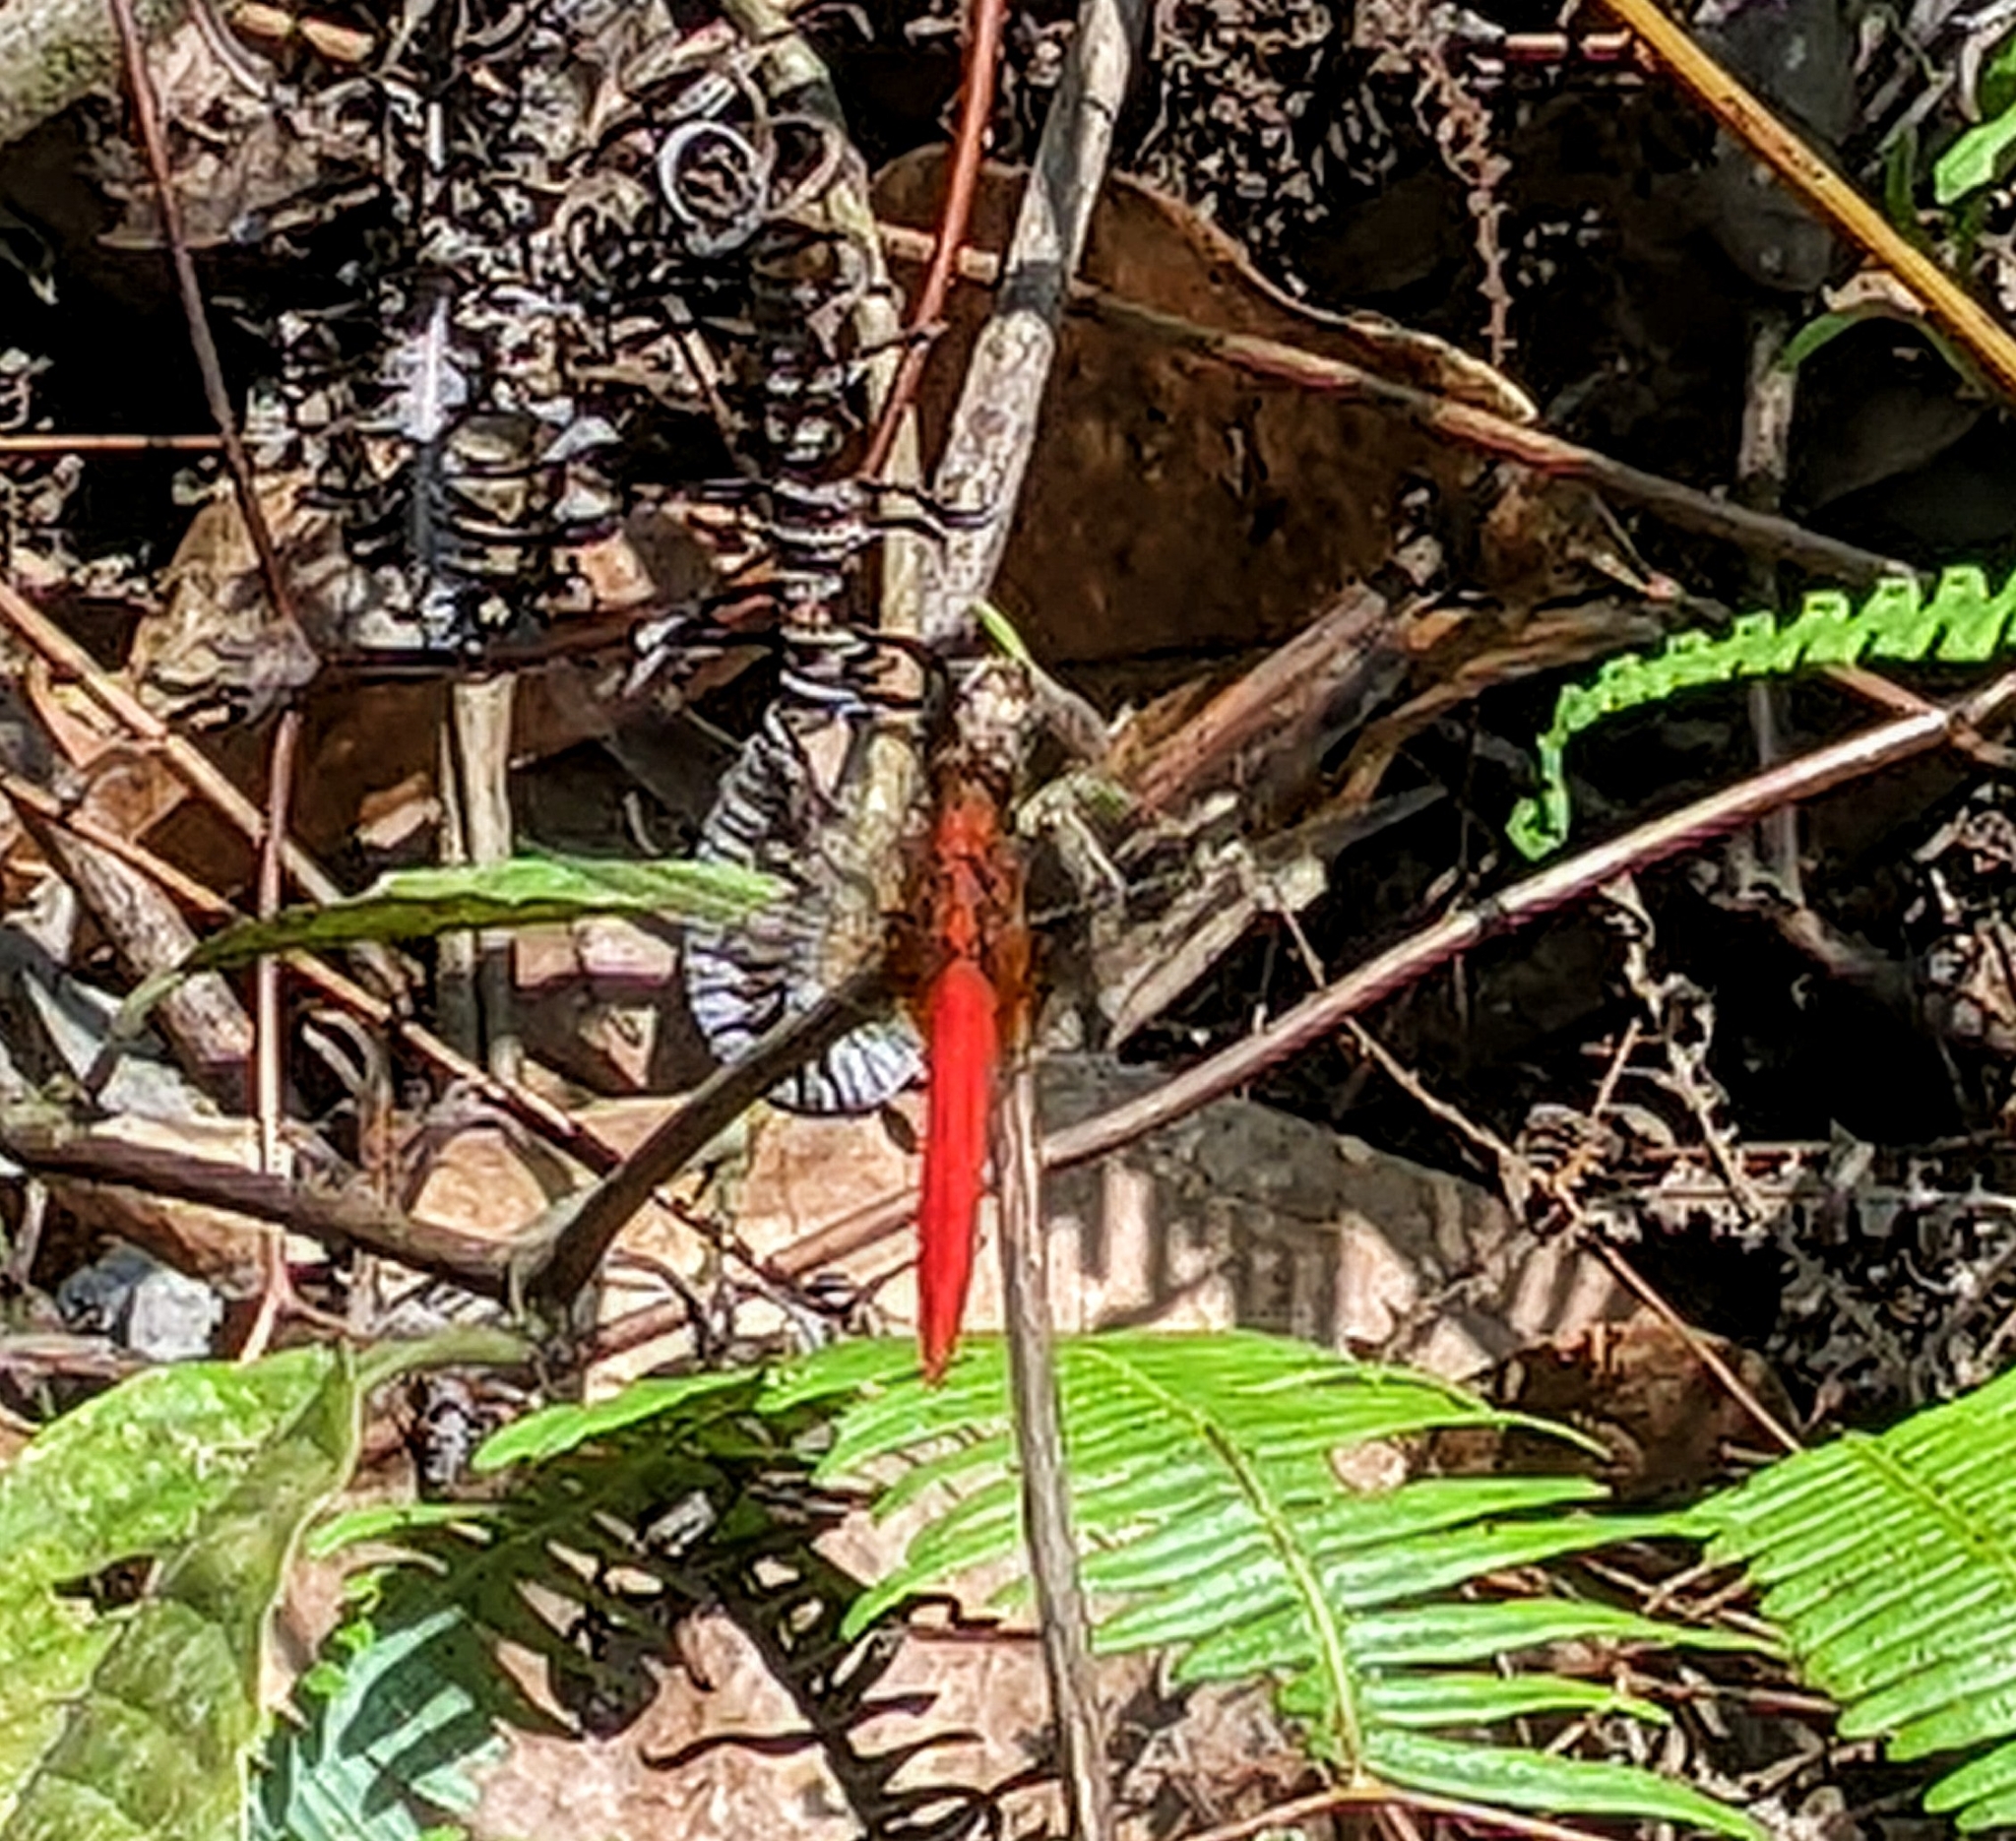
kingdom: Animalia
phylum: Arthropoda
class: Insecta
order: Odonata
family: Libellulidae
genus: Orthetrum
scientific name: Orthetrum testaceum
